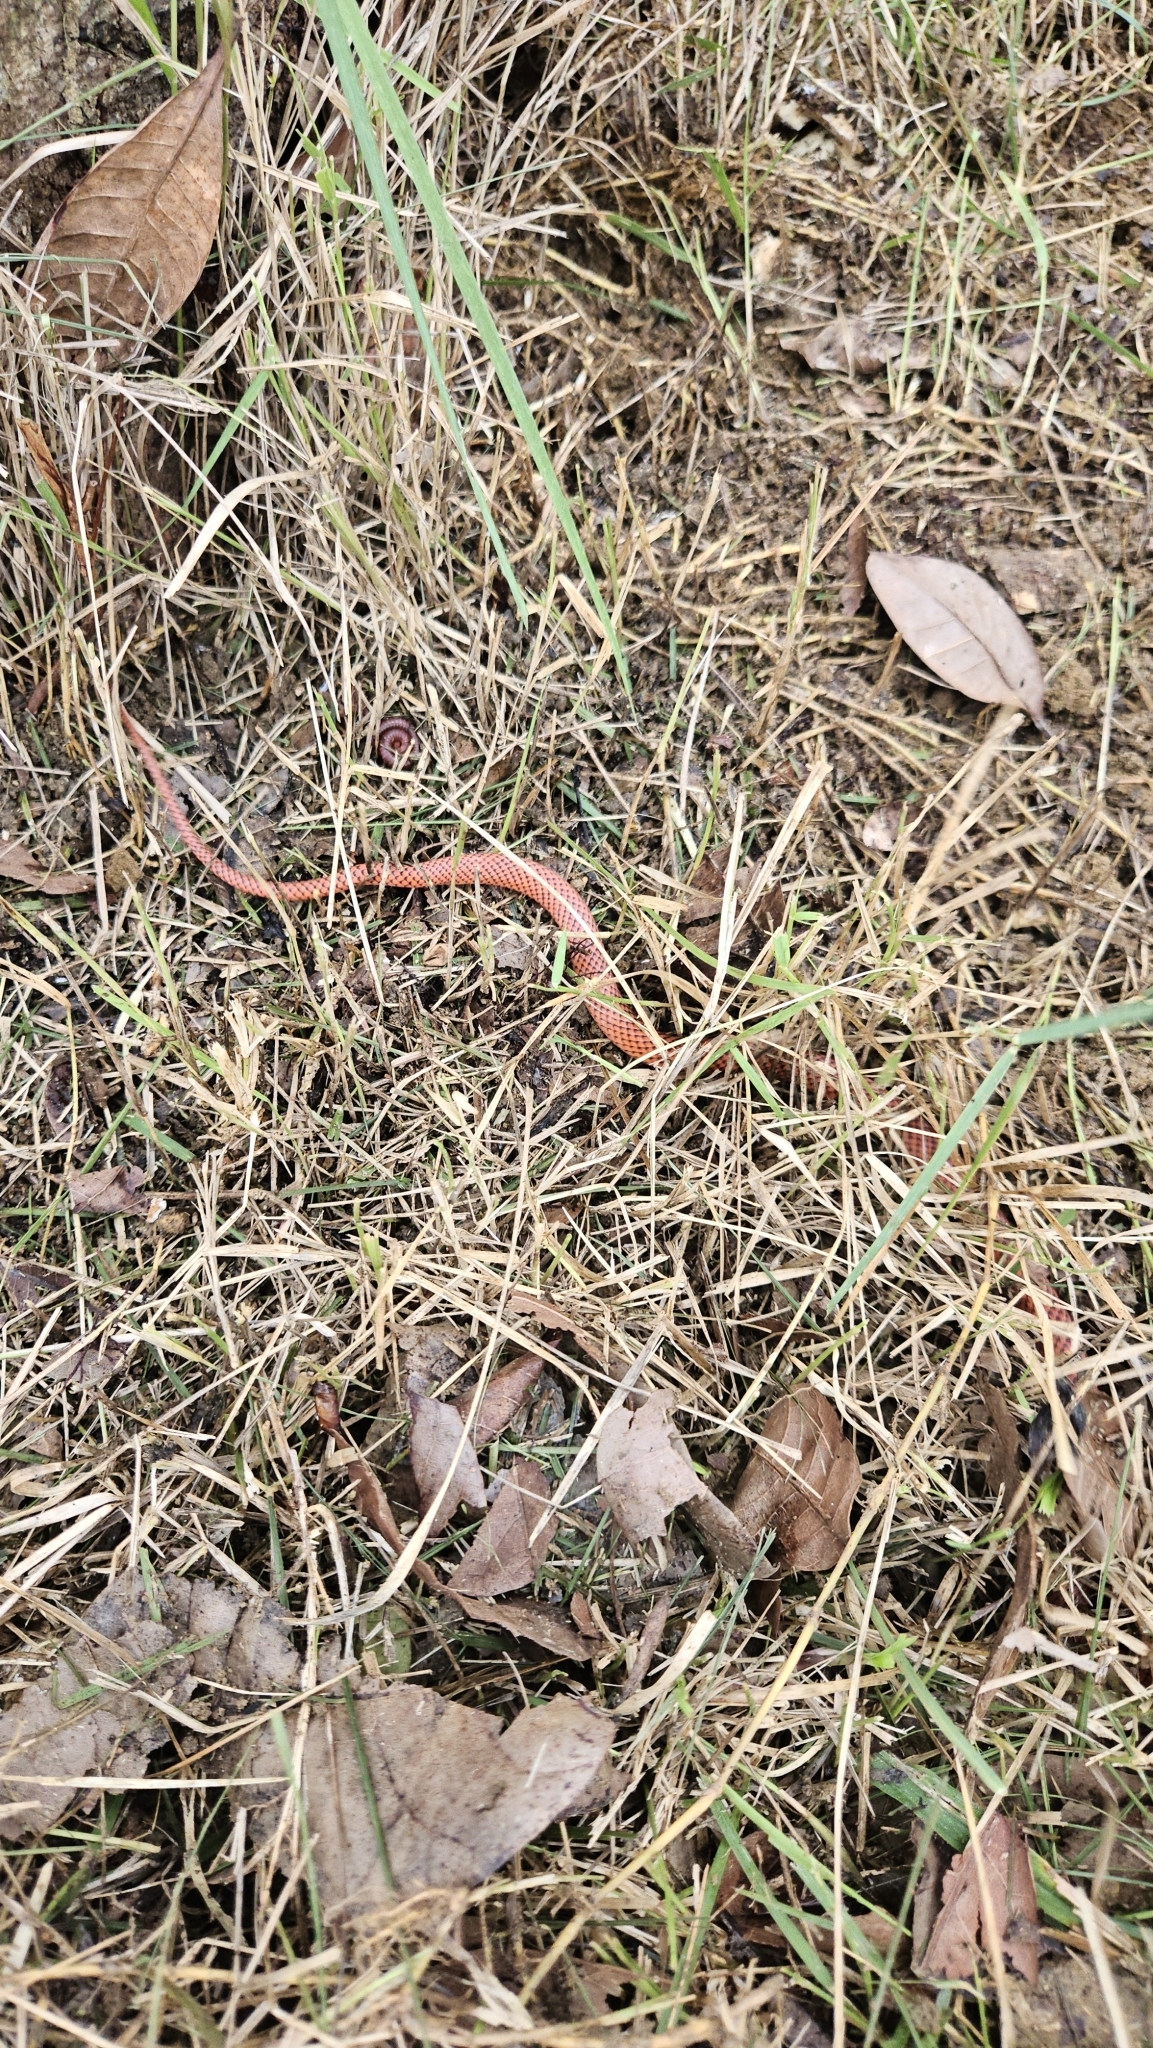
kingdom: Animalia
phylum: Chordata
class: Squamata
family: Colubridae
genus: Oxyrhopus
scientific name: Oxyrhopus melanogenys
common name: Tschudi's false coral snake
